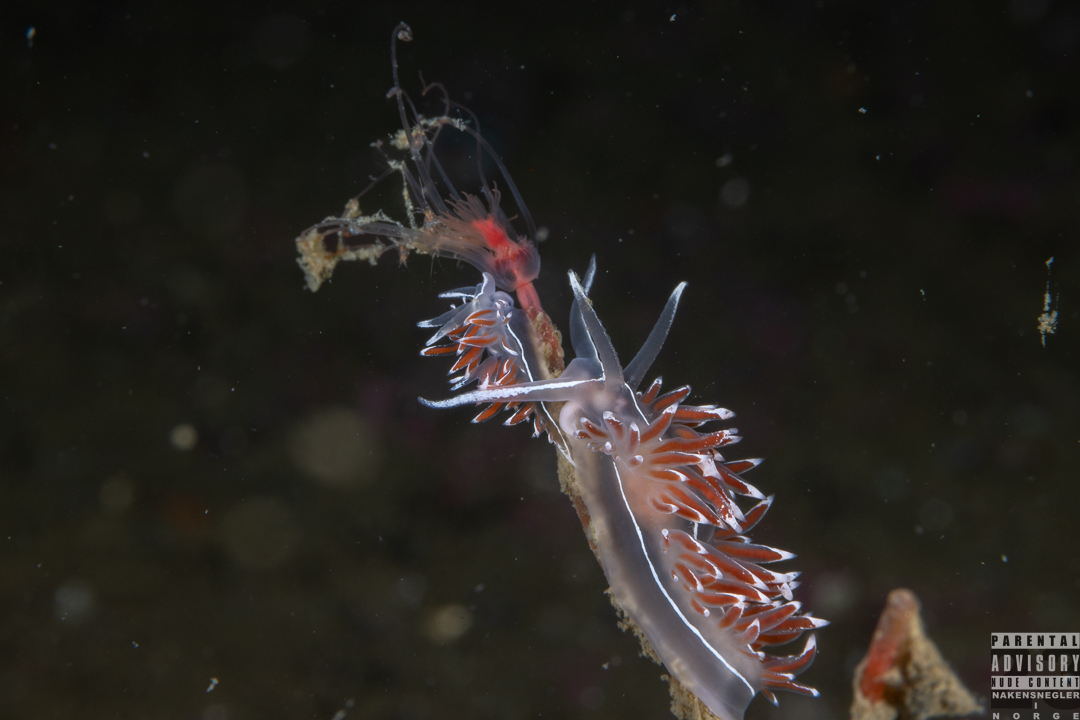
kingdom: Animalia
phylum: Mollusca
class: Gastropoda
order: Nudibranchia
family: Coryphellidae
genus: Coryphella
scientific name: Coryphella lineata
